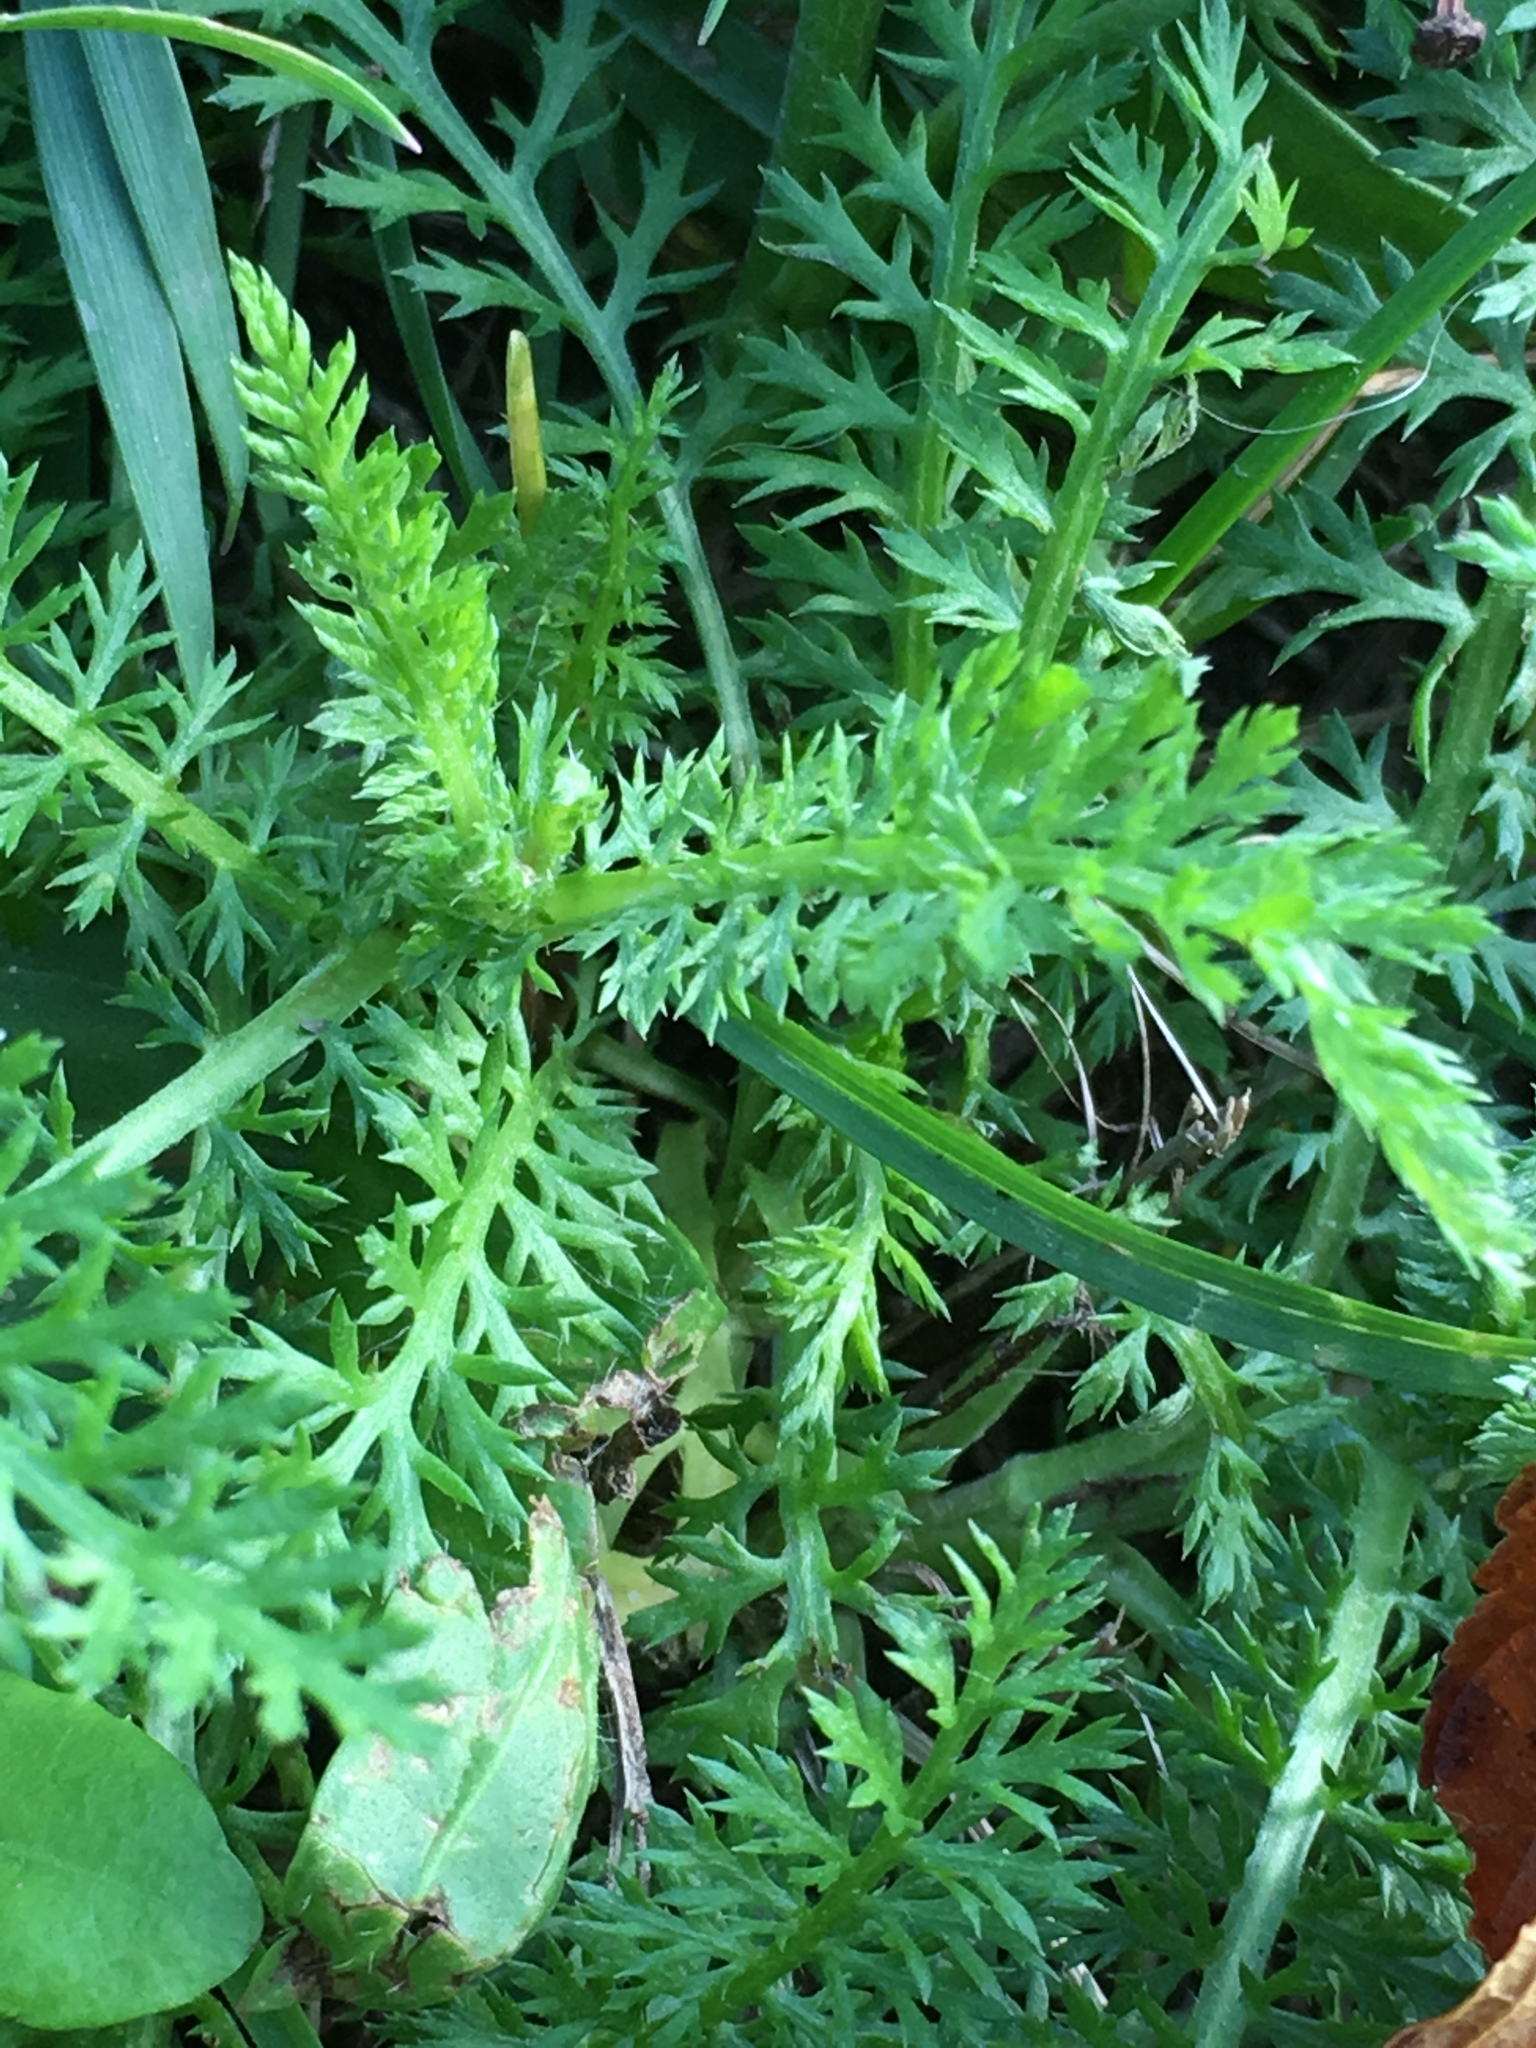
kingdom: Plantae
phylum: Tracheophyta
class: Magnoliopsida
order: Asterales
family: Asteraceae
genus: Achillea
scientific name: Achillea millefolium
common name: Yarrow
